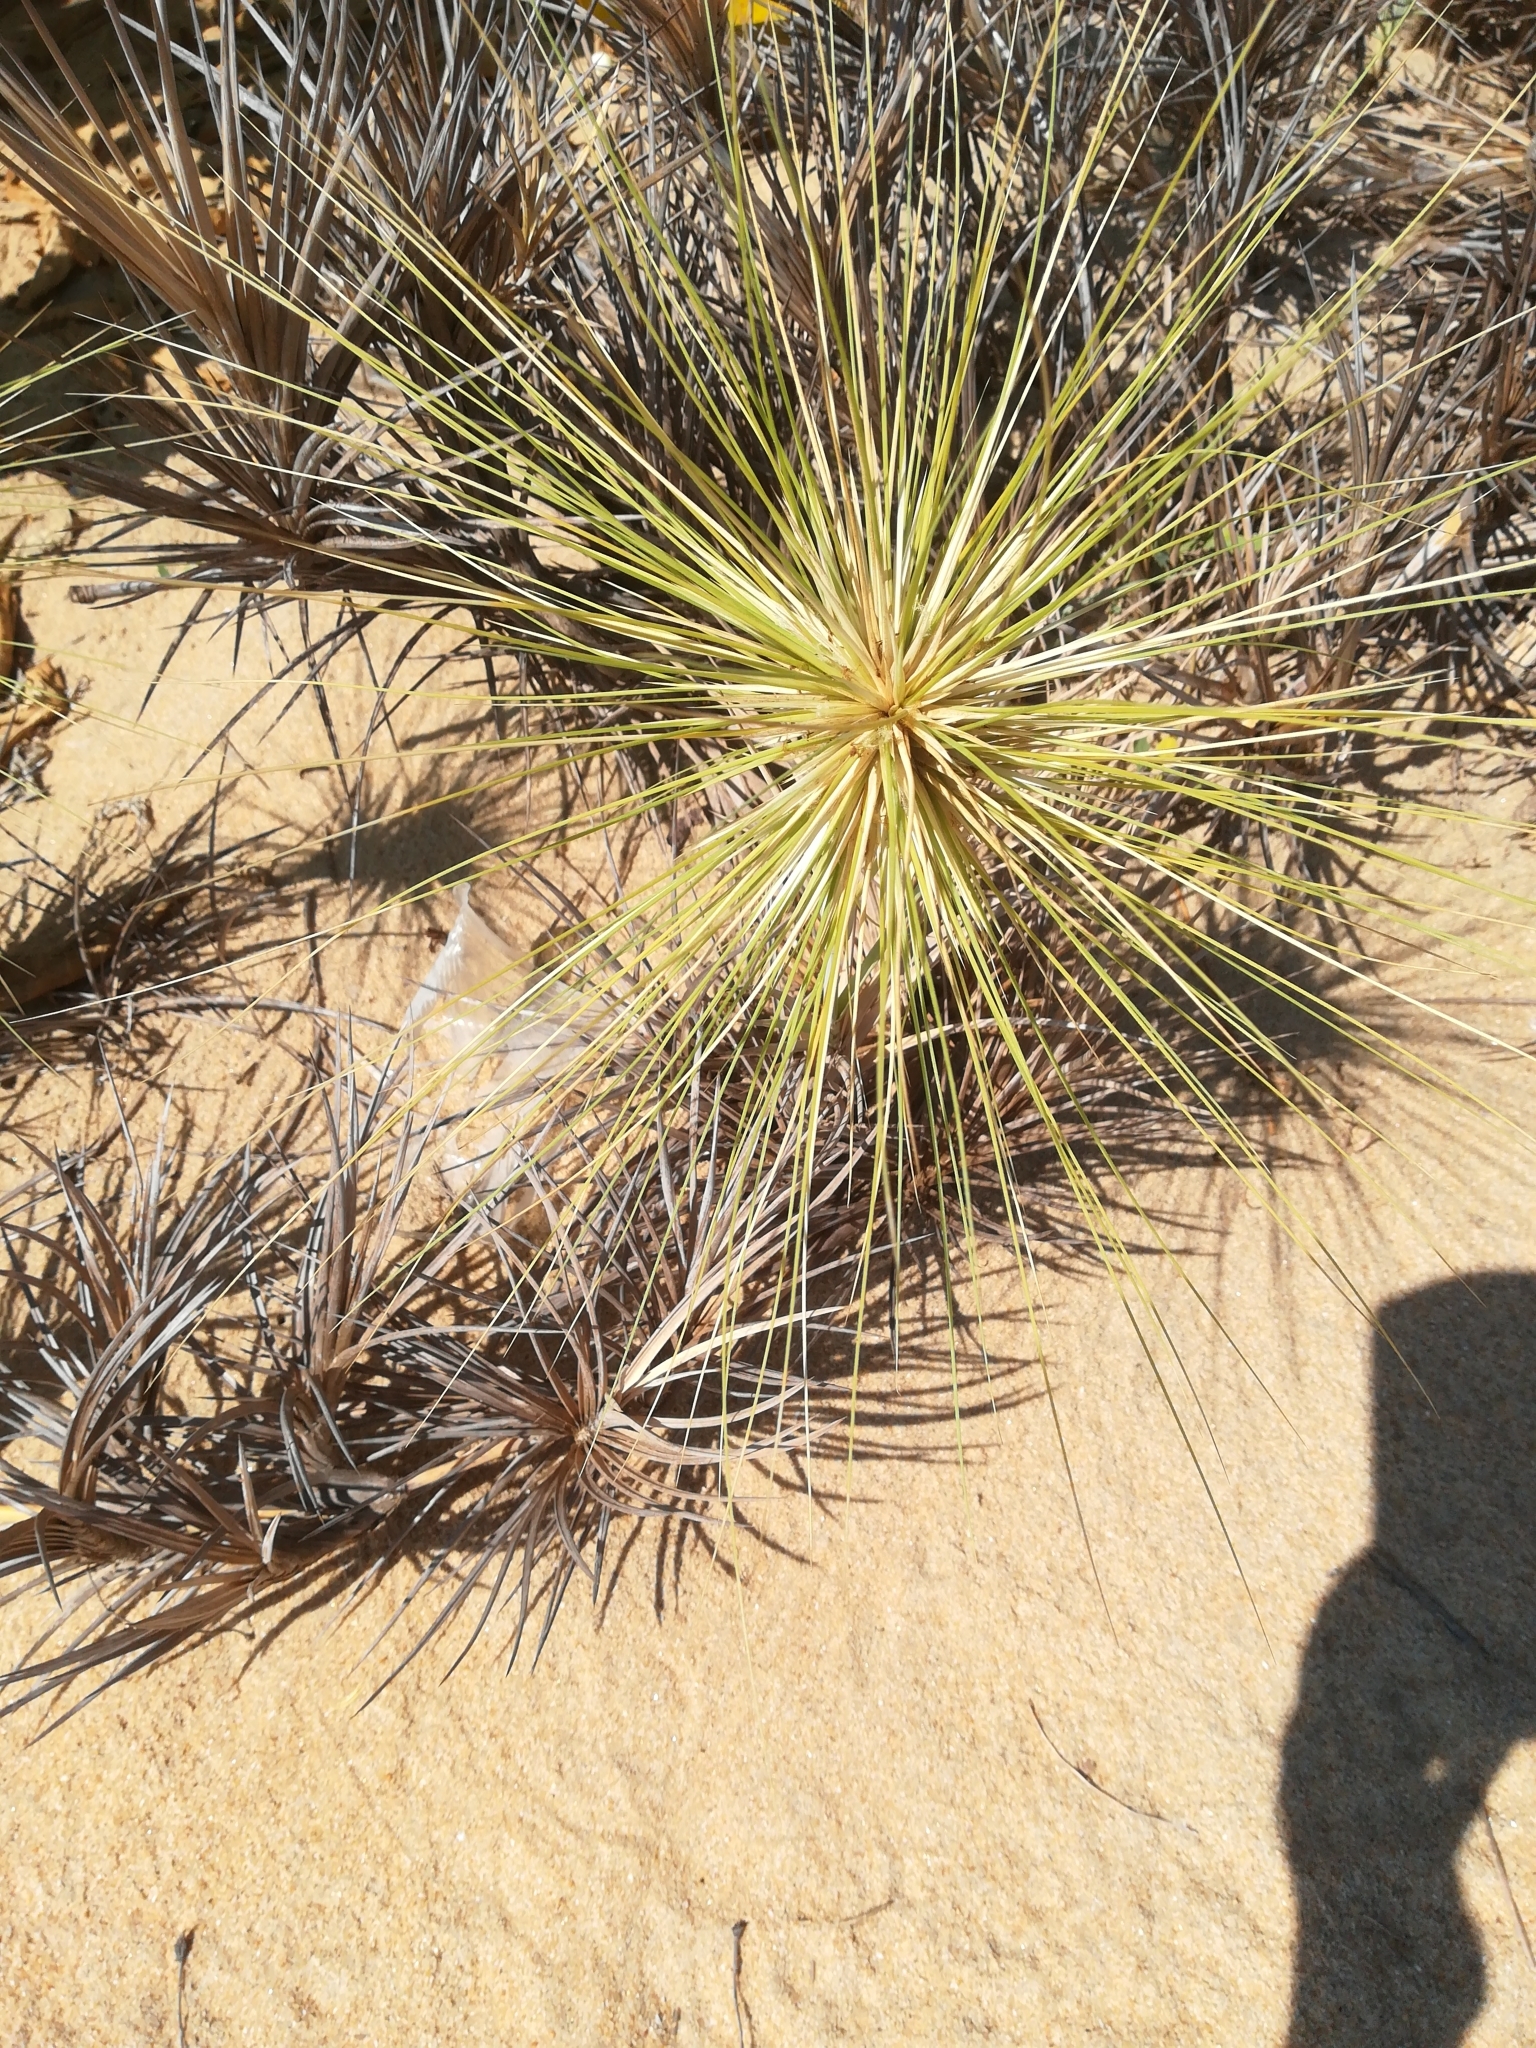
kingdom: Plantae
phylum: Tracheophyta
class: Liliopsida
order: Poales
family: Poaceae
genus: Spinifex
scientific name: Spinifex littoreus
